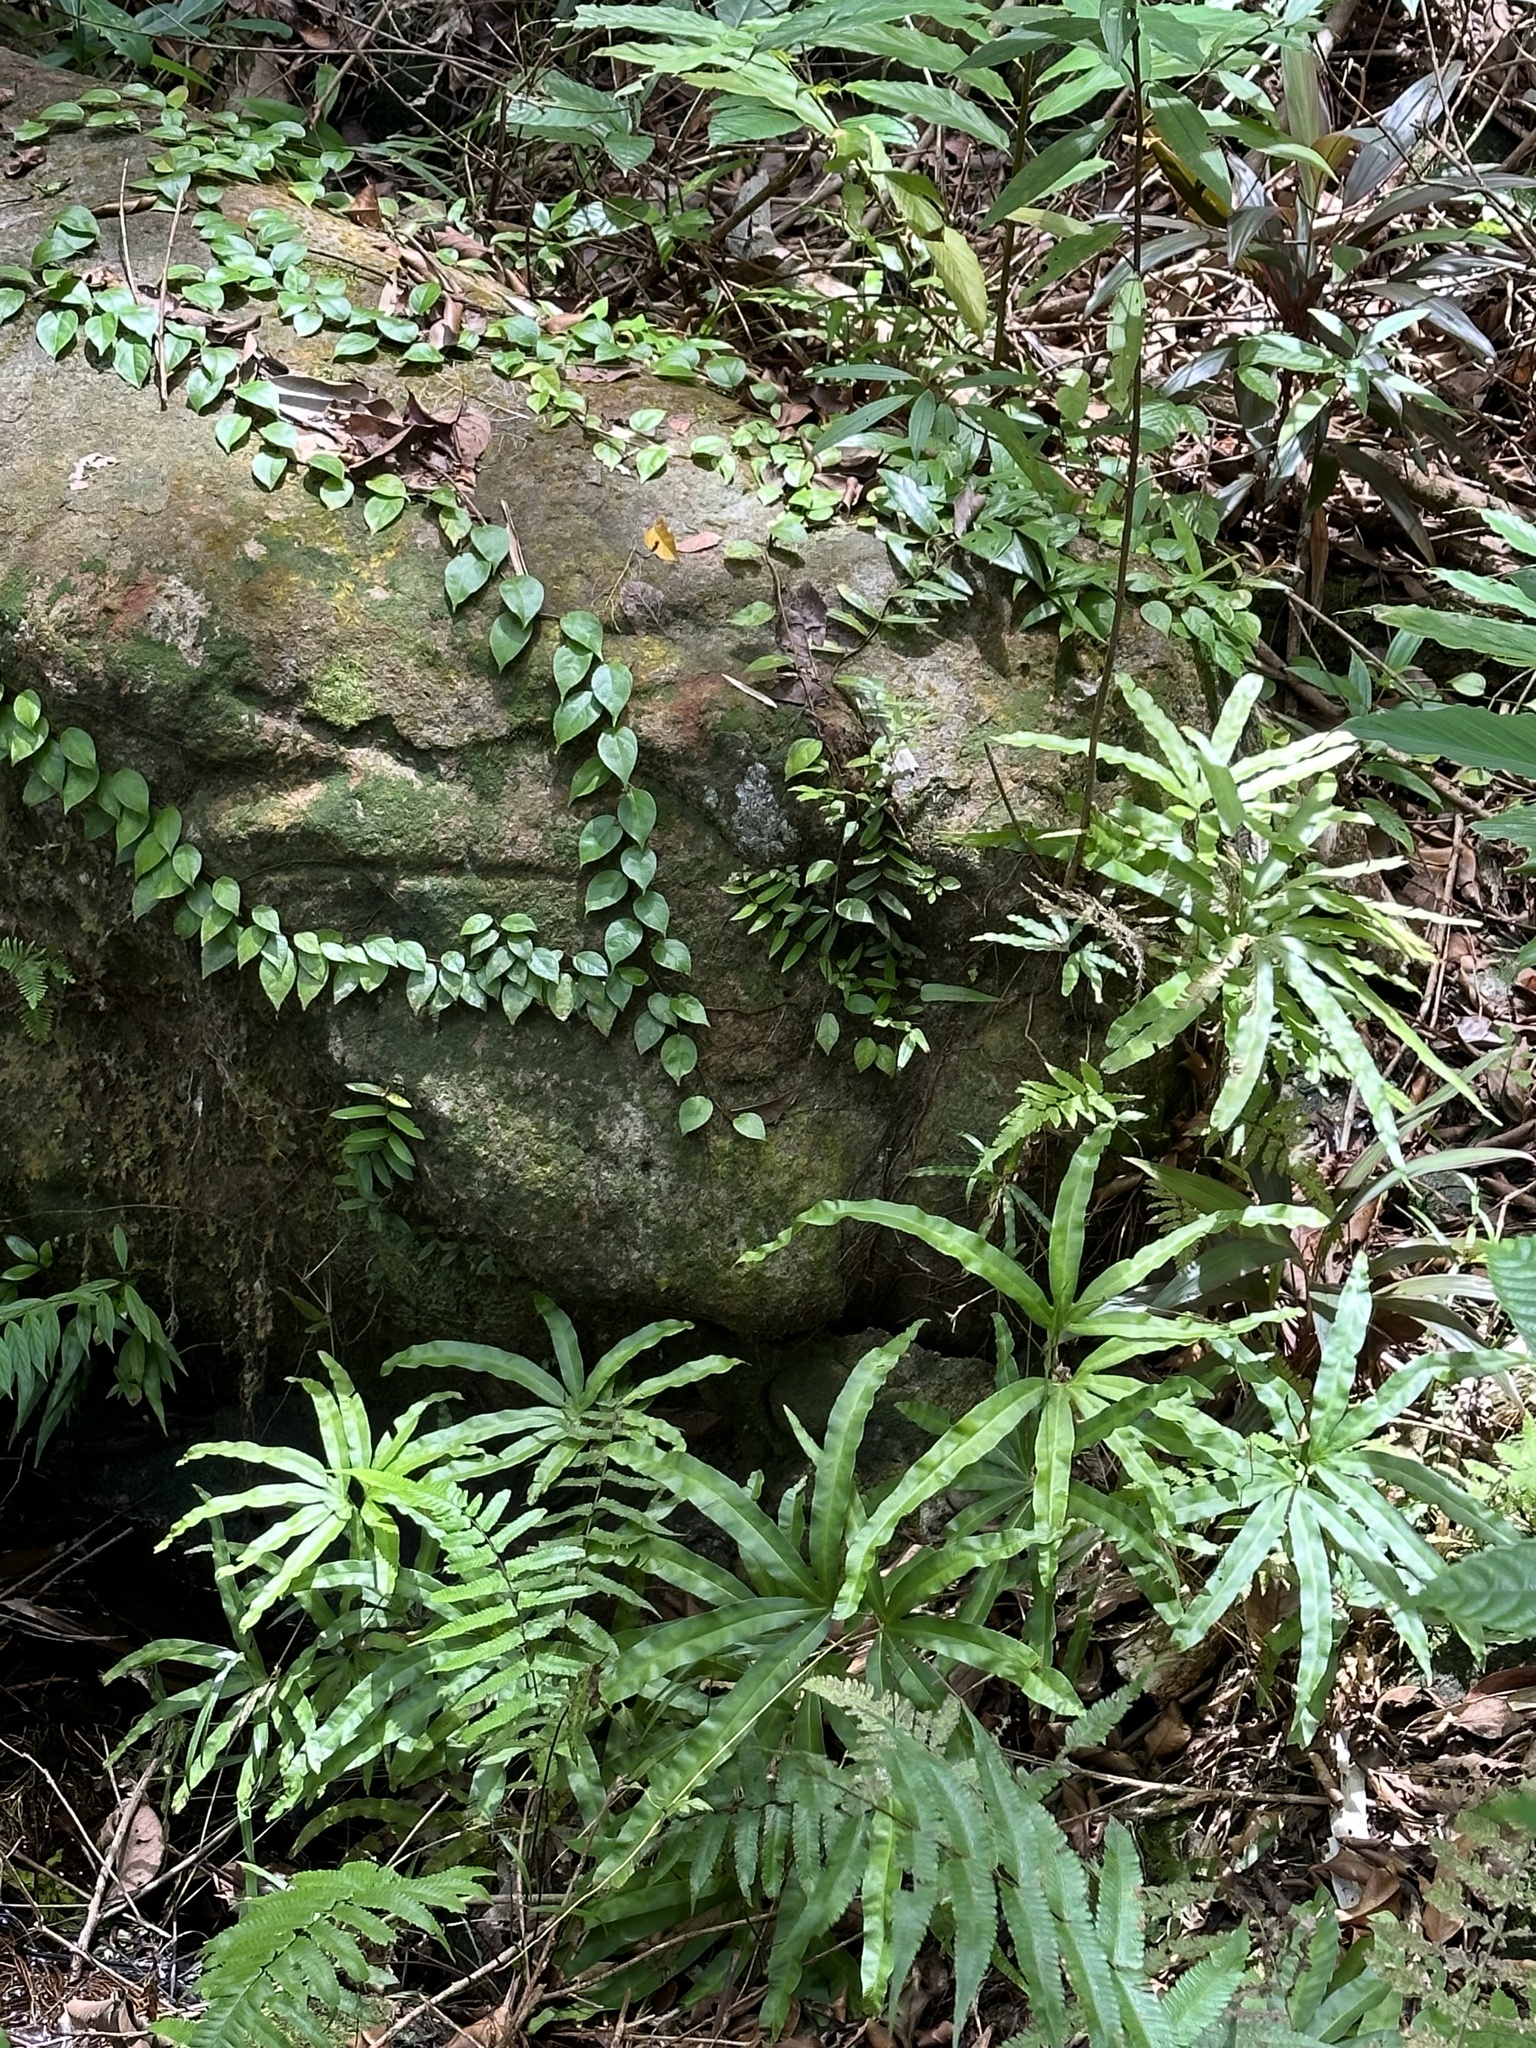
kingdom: Plantae
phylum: Tracheophyta
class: Polypodiopsida
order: Schizaeales
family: Lygodiaceae
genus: Lygodium
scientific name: Lygodium circinnatum
